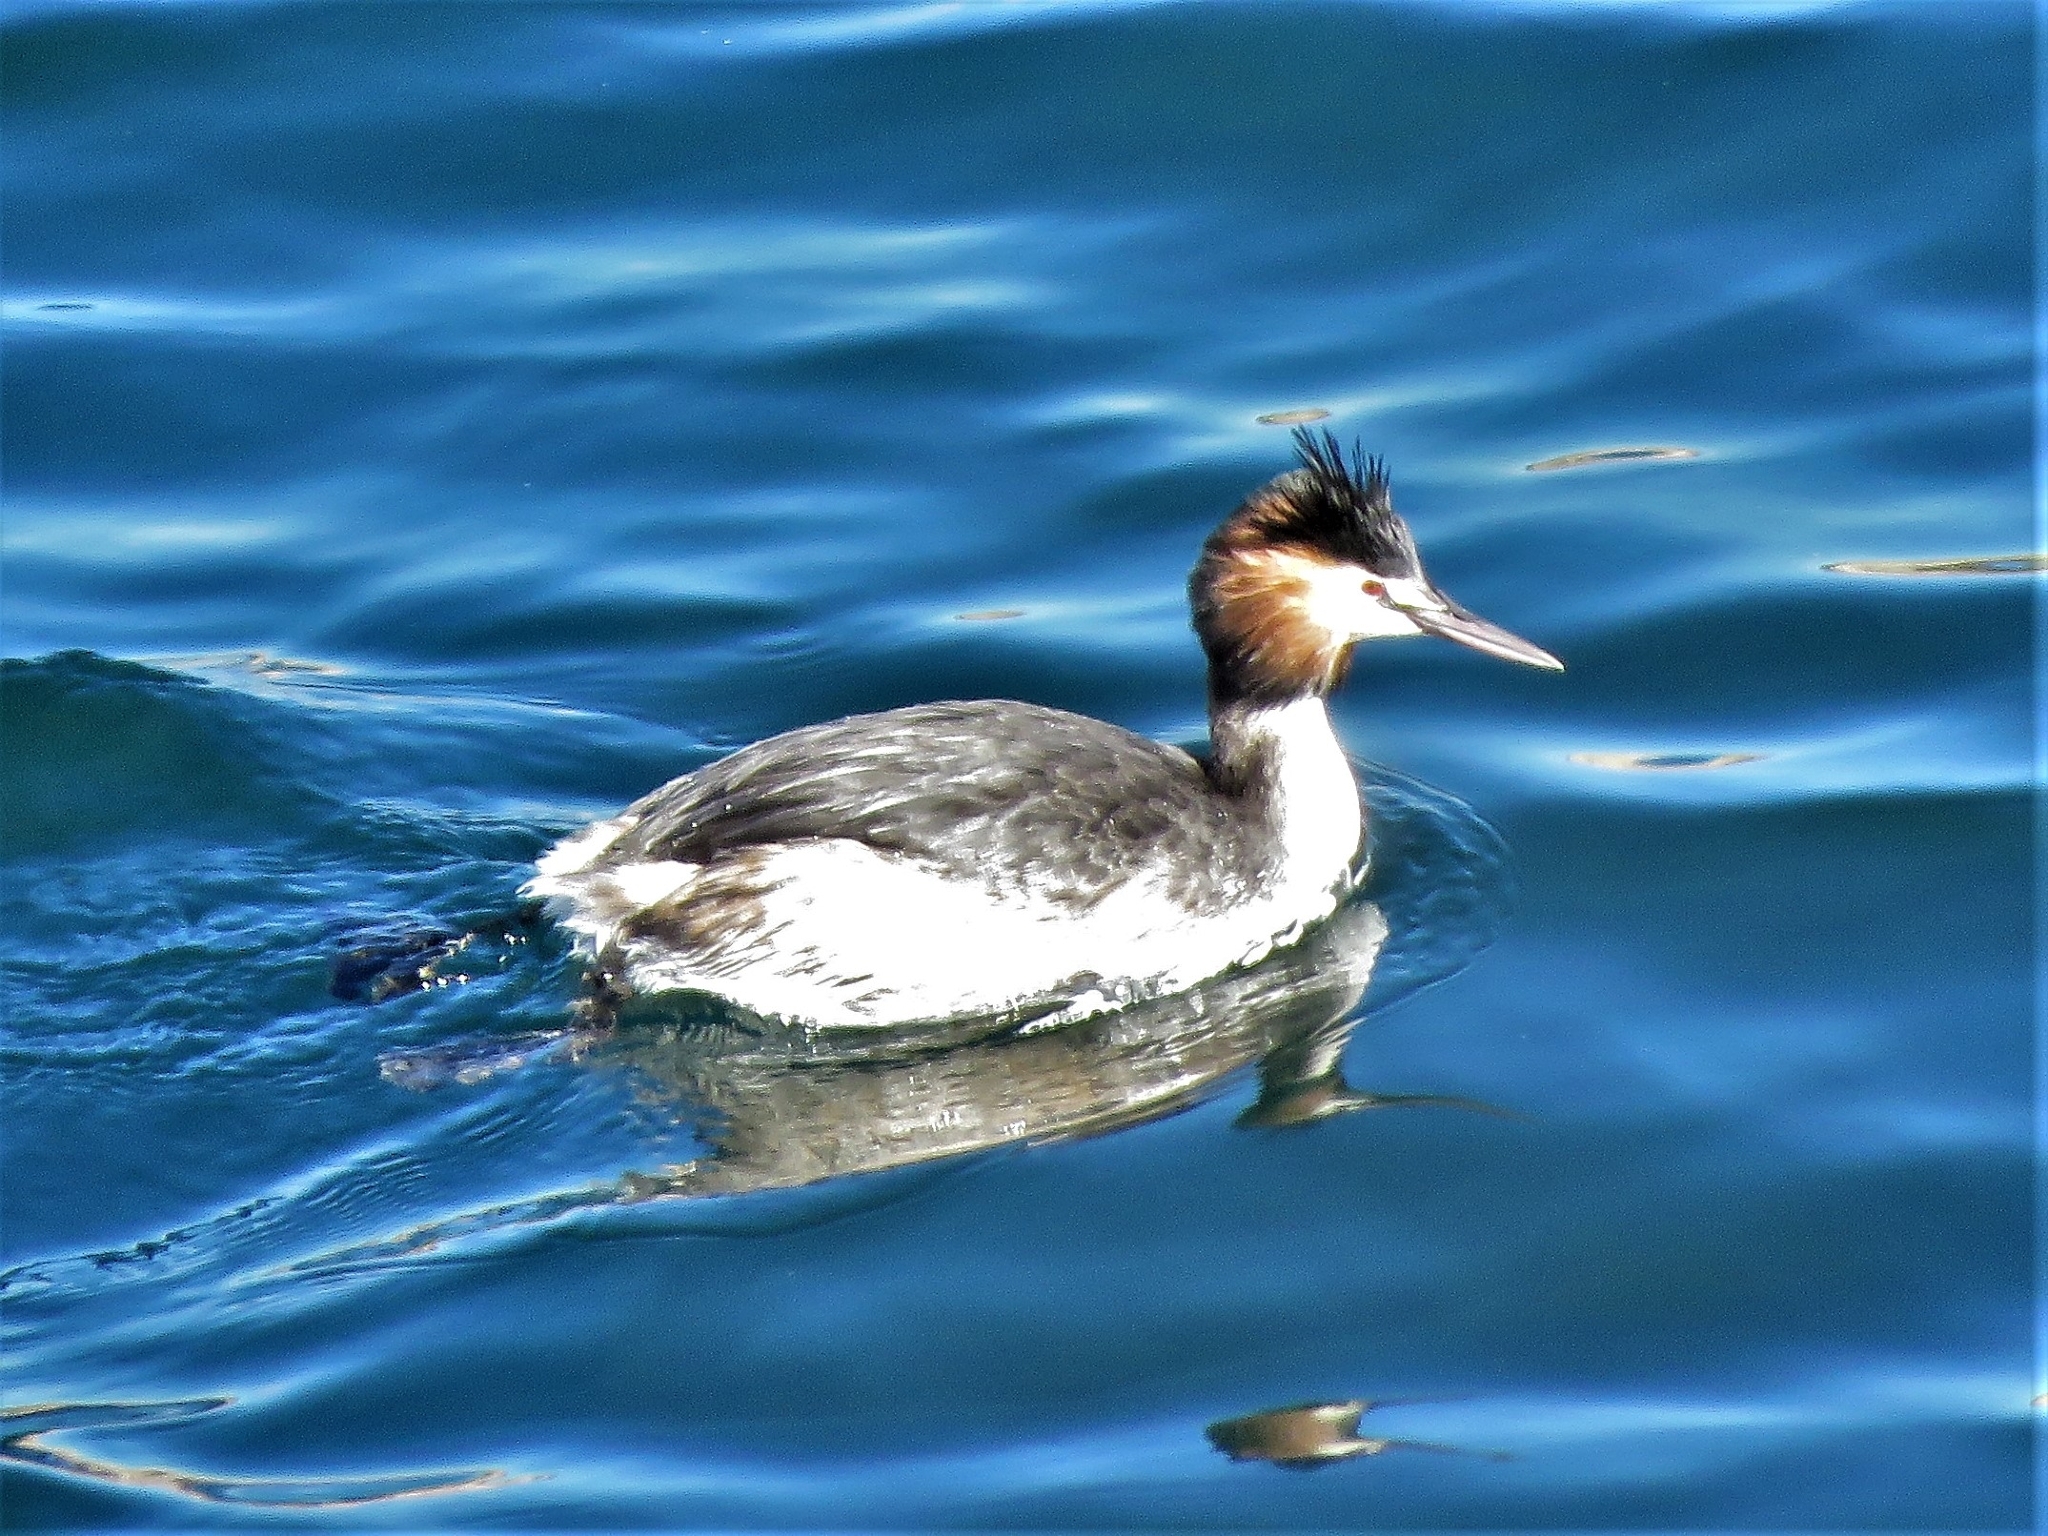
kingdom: Animalia
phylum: Chordata
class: Aves
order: Podicipediformes
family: Podicipedidae
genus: Podiceps
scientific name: Podiceps cristatus
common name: Great crested grebe
